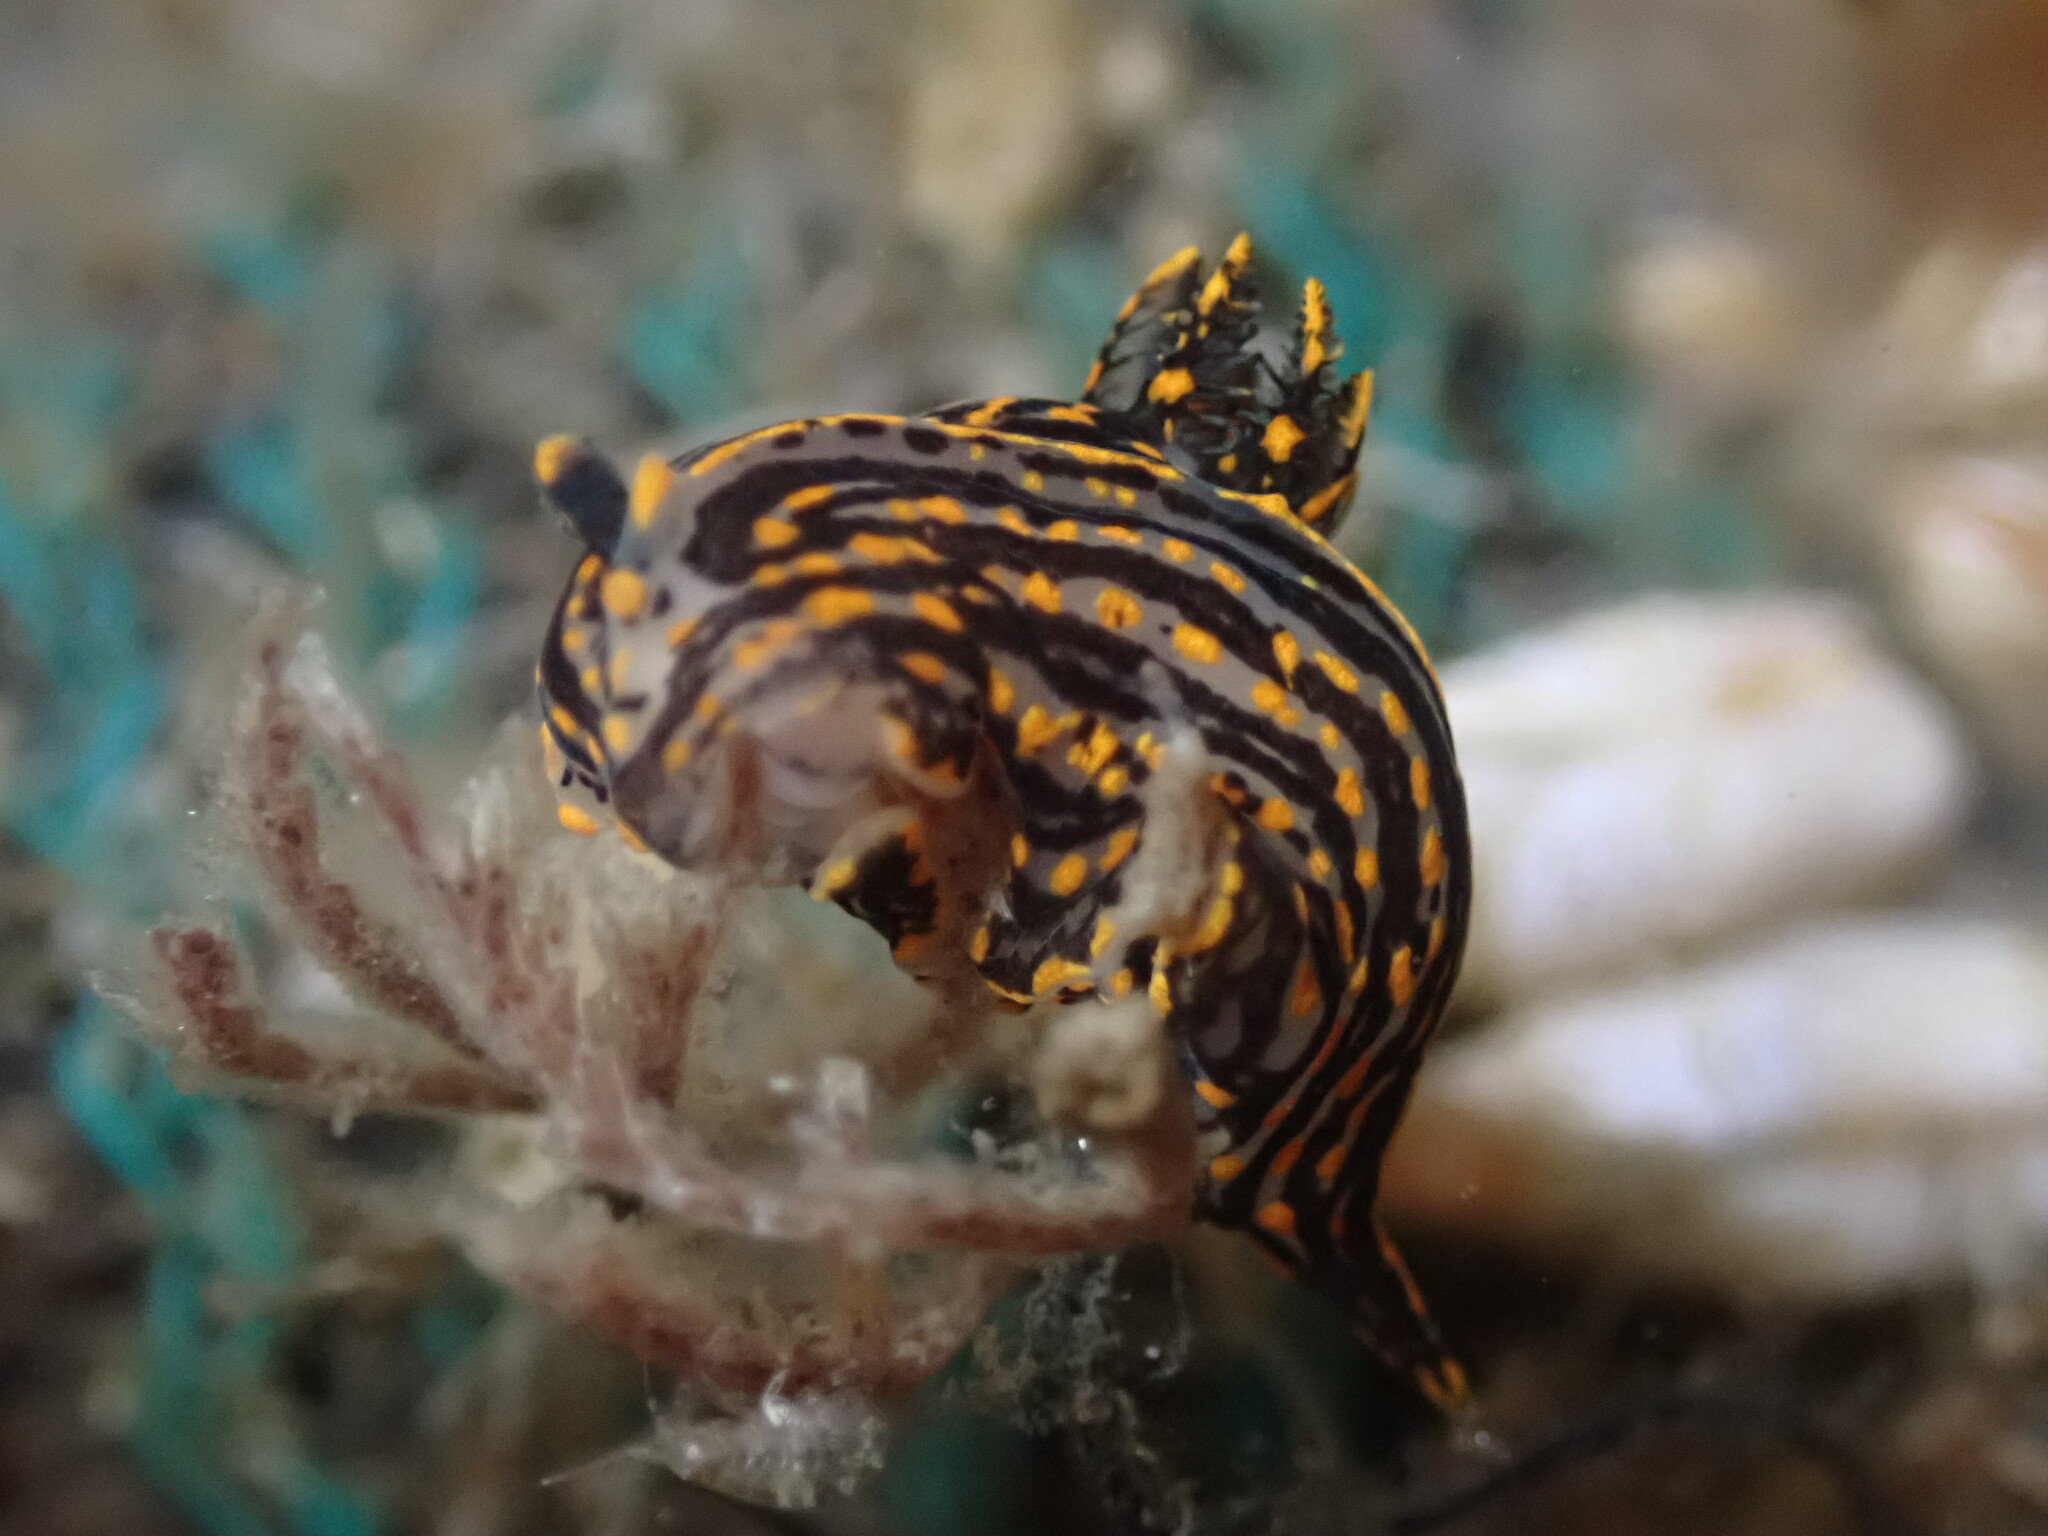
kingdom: Animalia
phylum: Mollusca
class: Gastropoda
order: Nudibranchia
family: Polyceridae
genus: Polycera
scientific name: Polycera atra
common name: Orange-spike polycera
